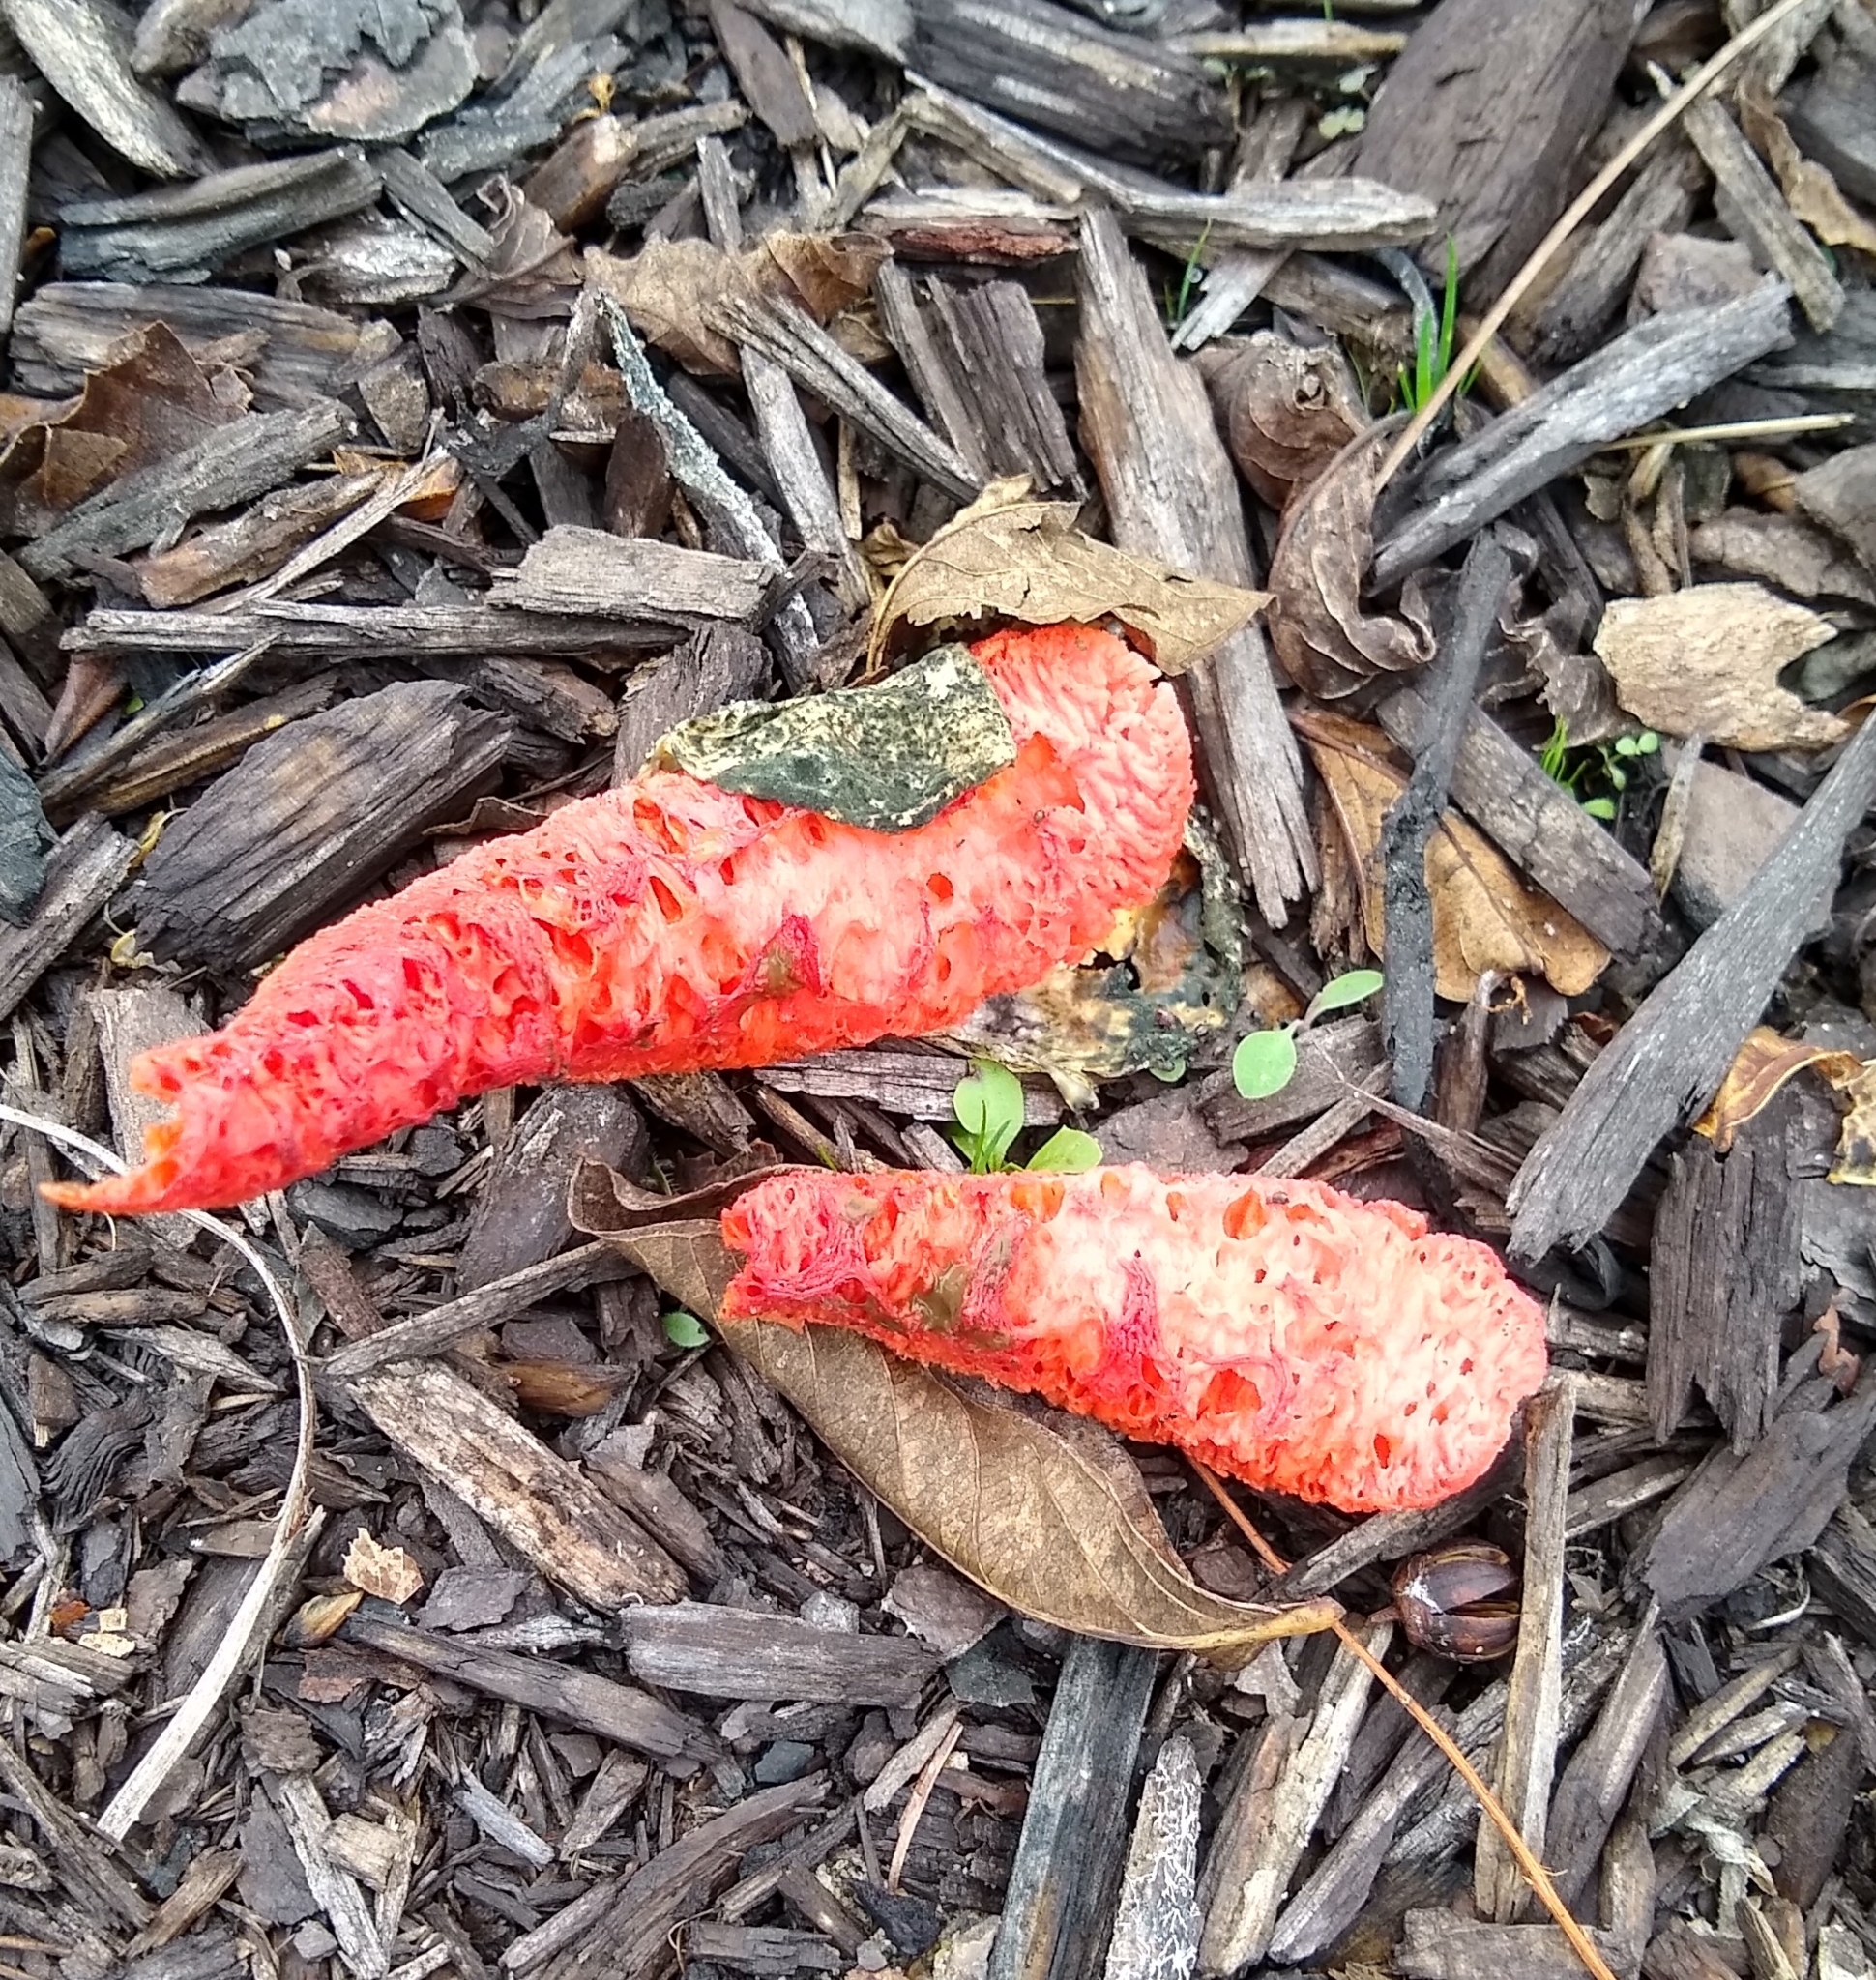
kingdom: Fungi
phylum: Basidiomycota
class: Agaricomycetes
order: Phallales
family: Phallaceae
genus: Clathrus
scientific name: Clathrus columnatus
